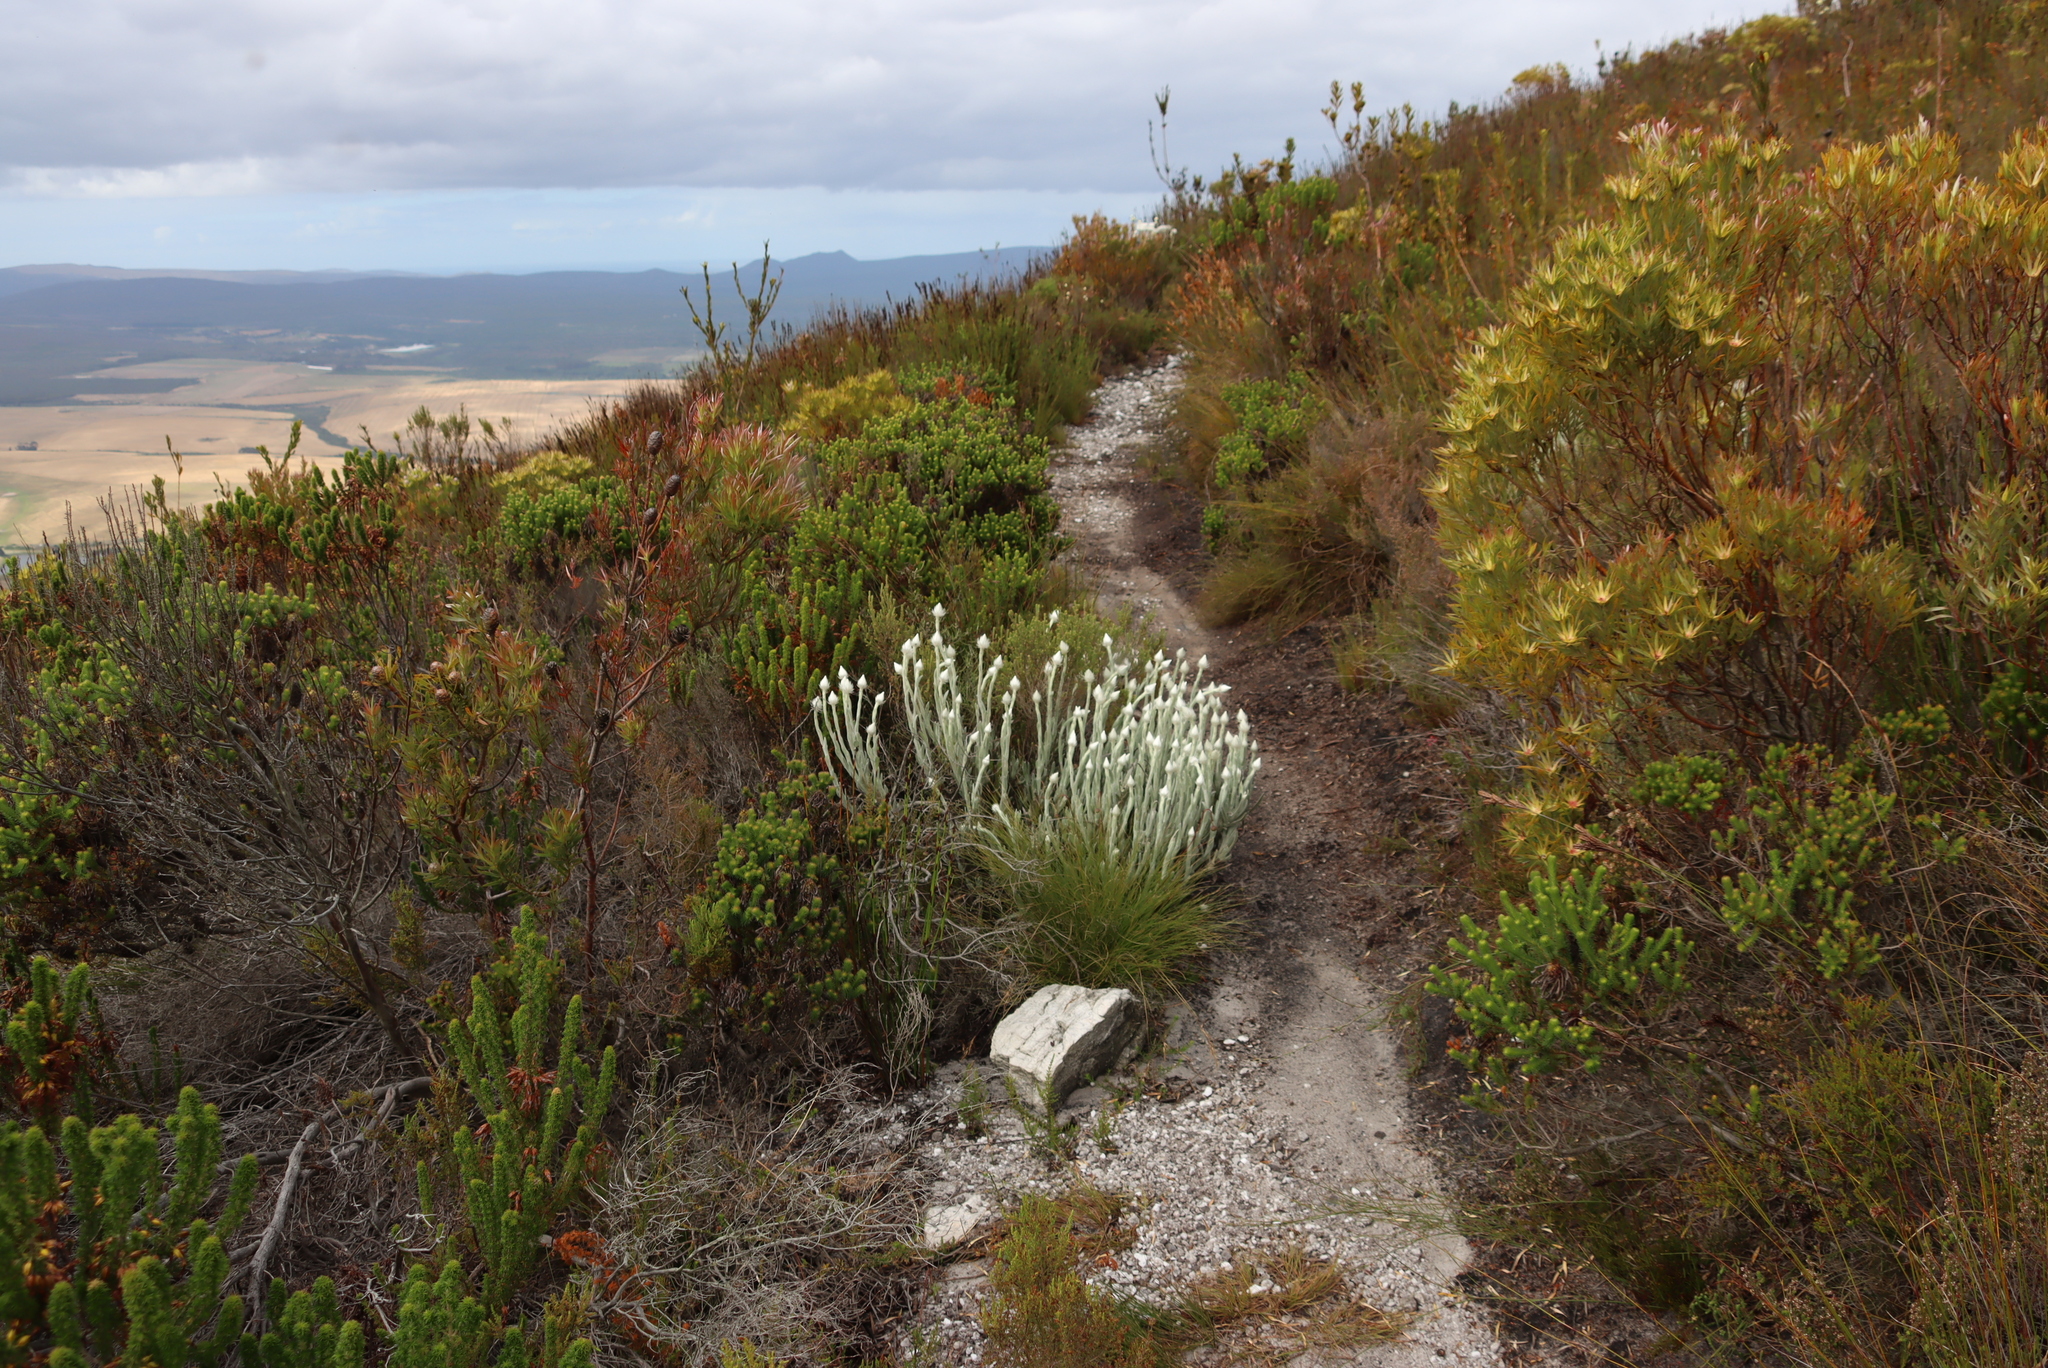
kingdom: Plantae
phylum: Tracheophyta
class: Magnoliopsida
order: Asterales
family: Asteraceae
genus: Syncarpha
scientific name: Syncarpha vestita
